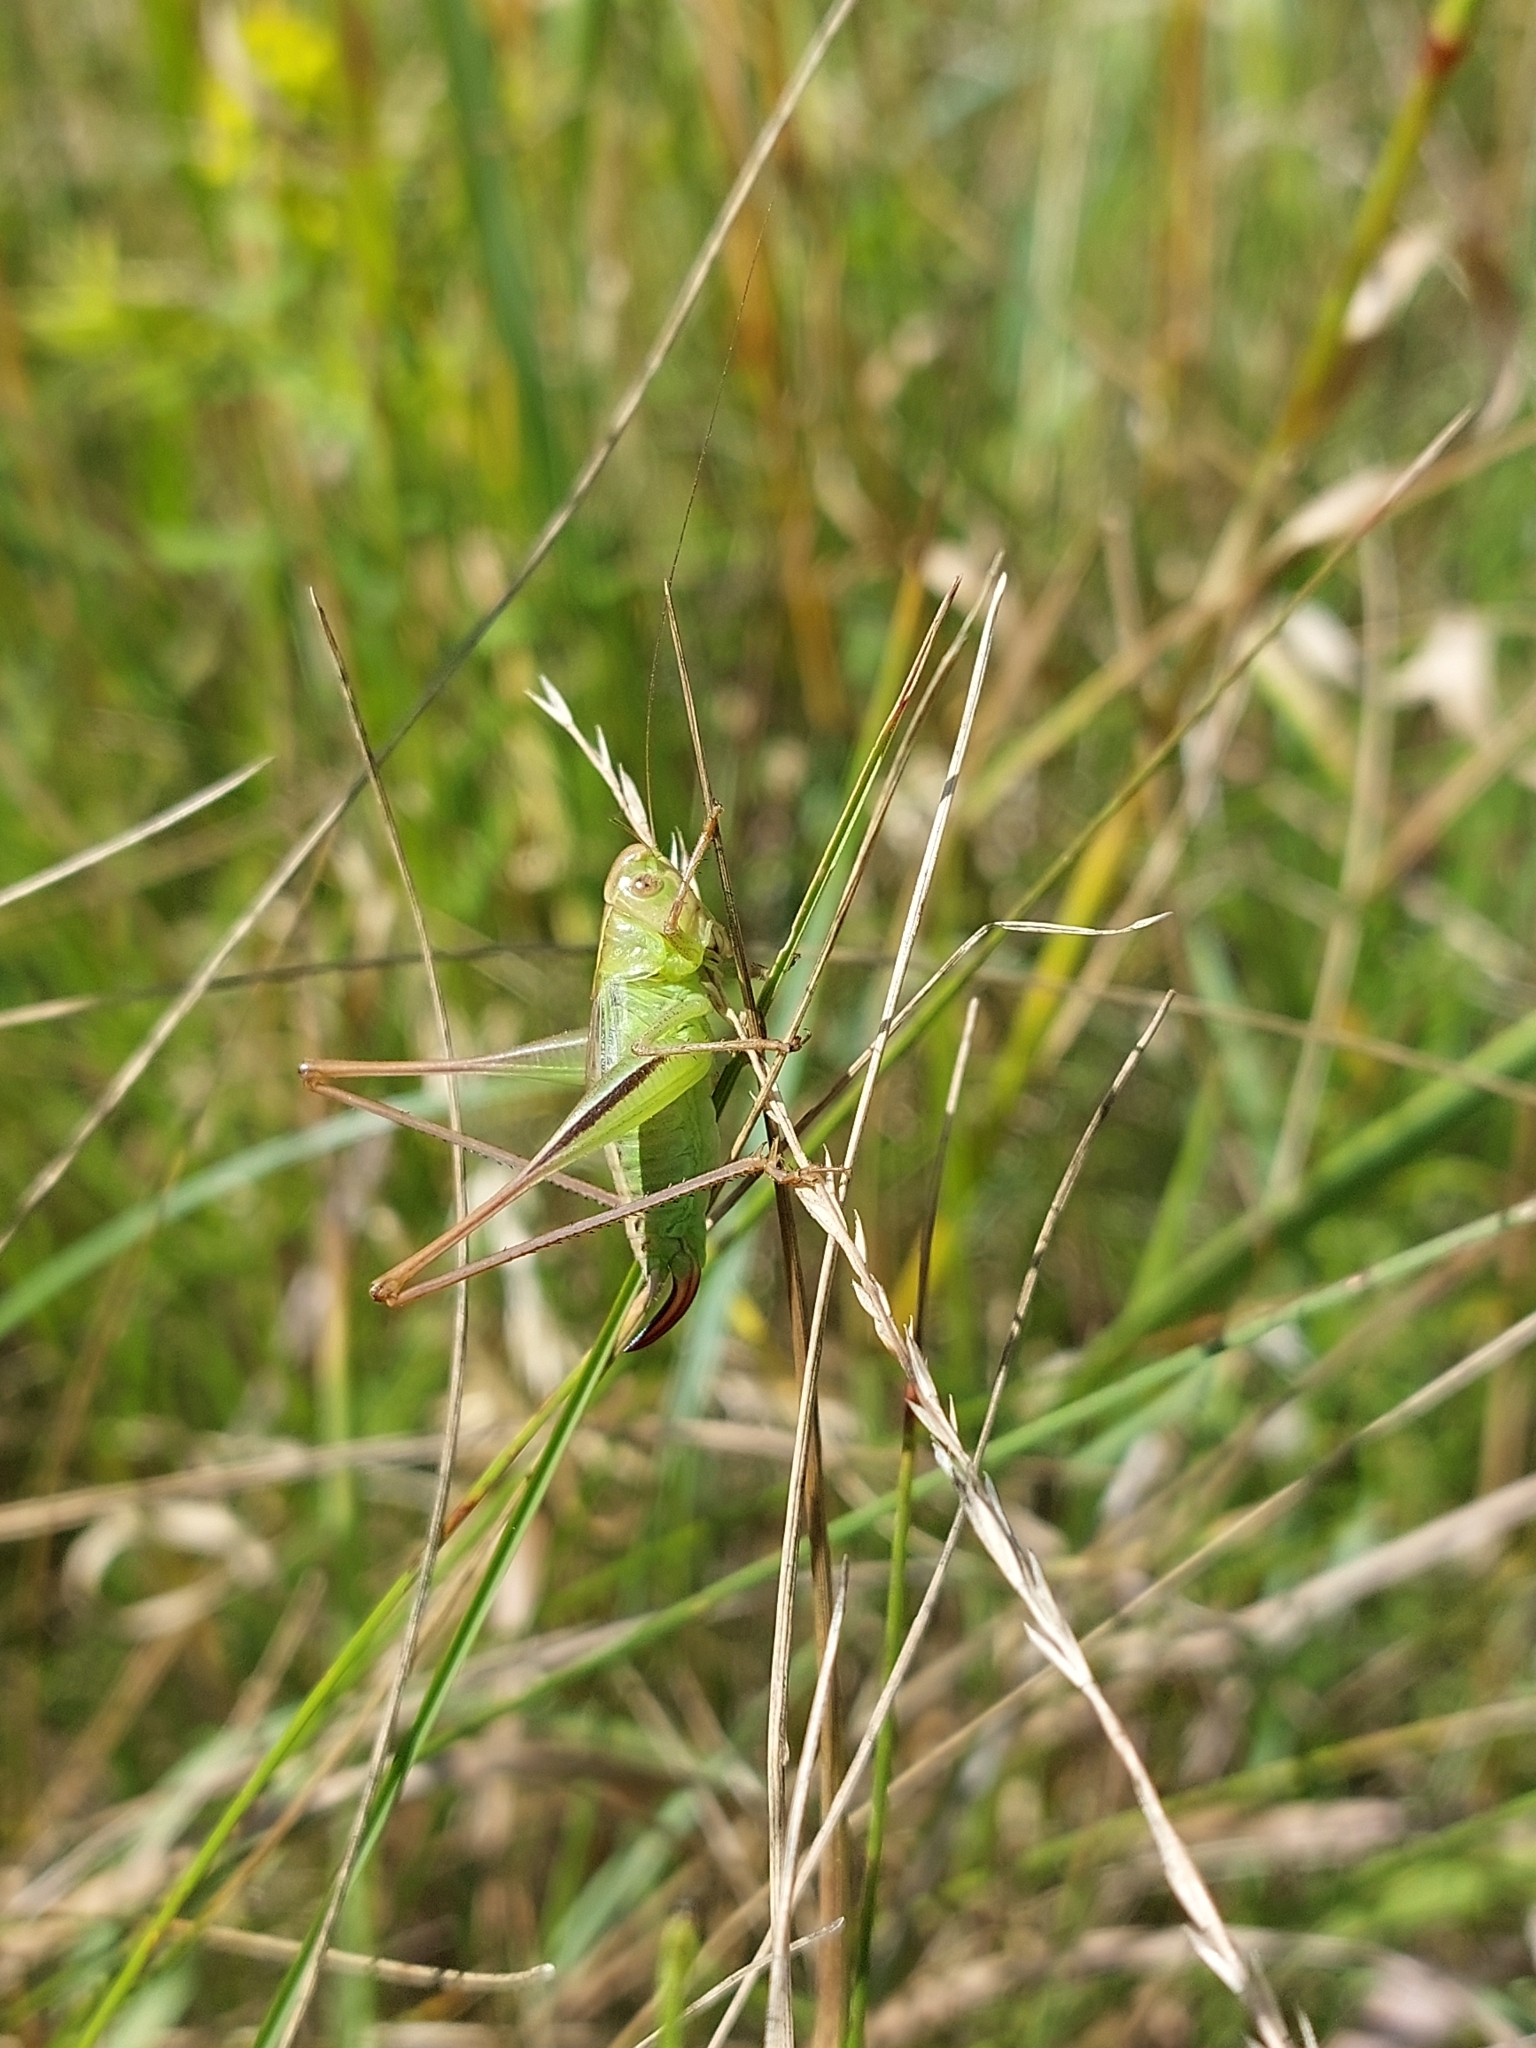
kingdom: Animalia
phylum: Arthropoda
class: Insecta
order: Orthoptera
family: Tettigoniidae
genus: Bicolorana
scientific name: Bicolorana bicolor
